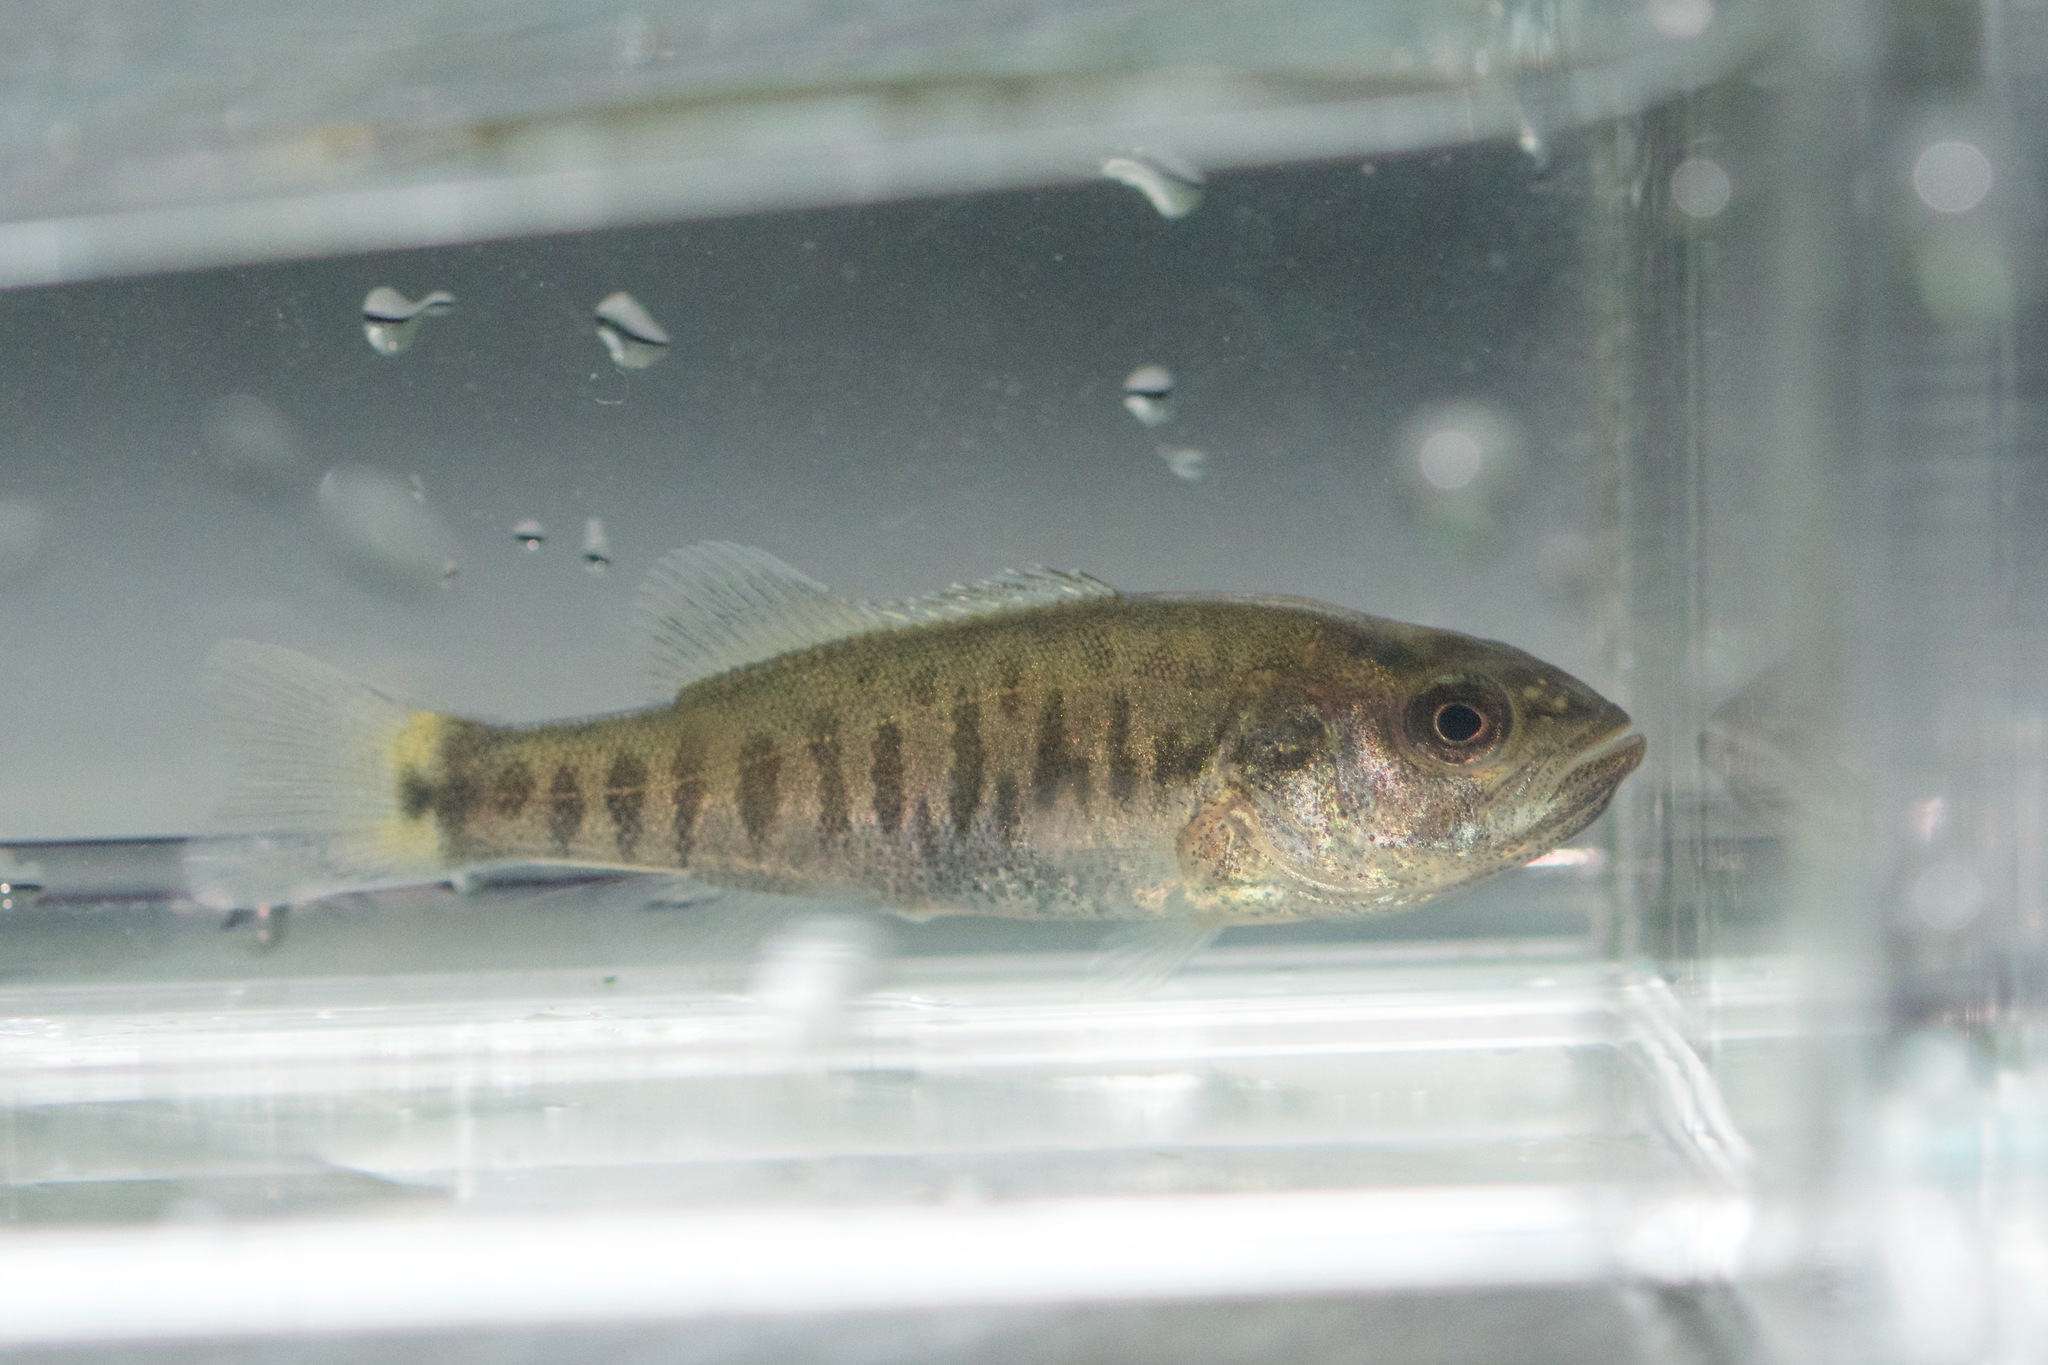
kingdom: Animalia
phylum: Chordata
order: Perciformes
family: Centrarchidae
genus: Micropterus
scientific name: Micropterus dolomieu
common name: Smallmouth bass
